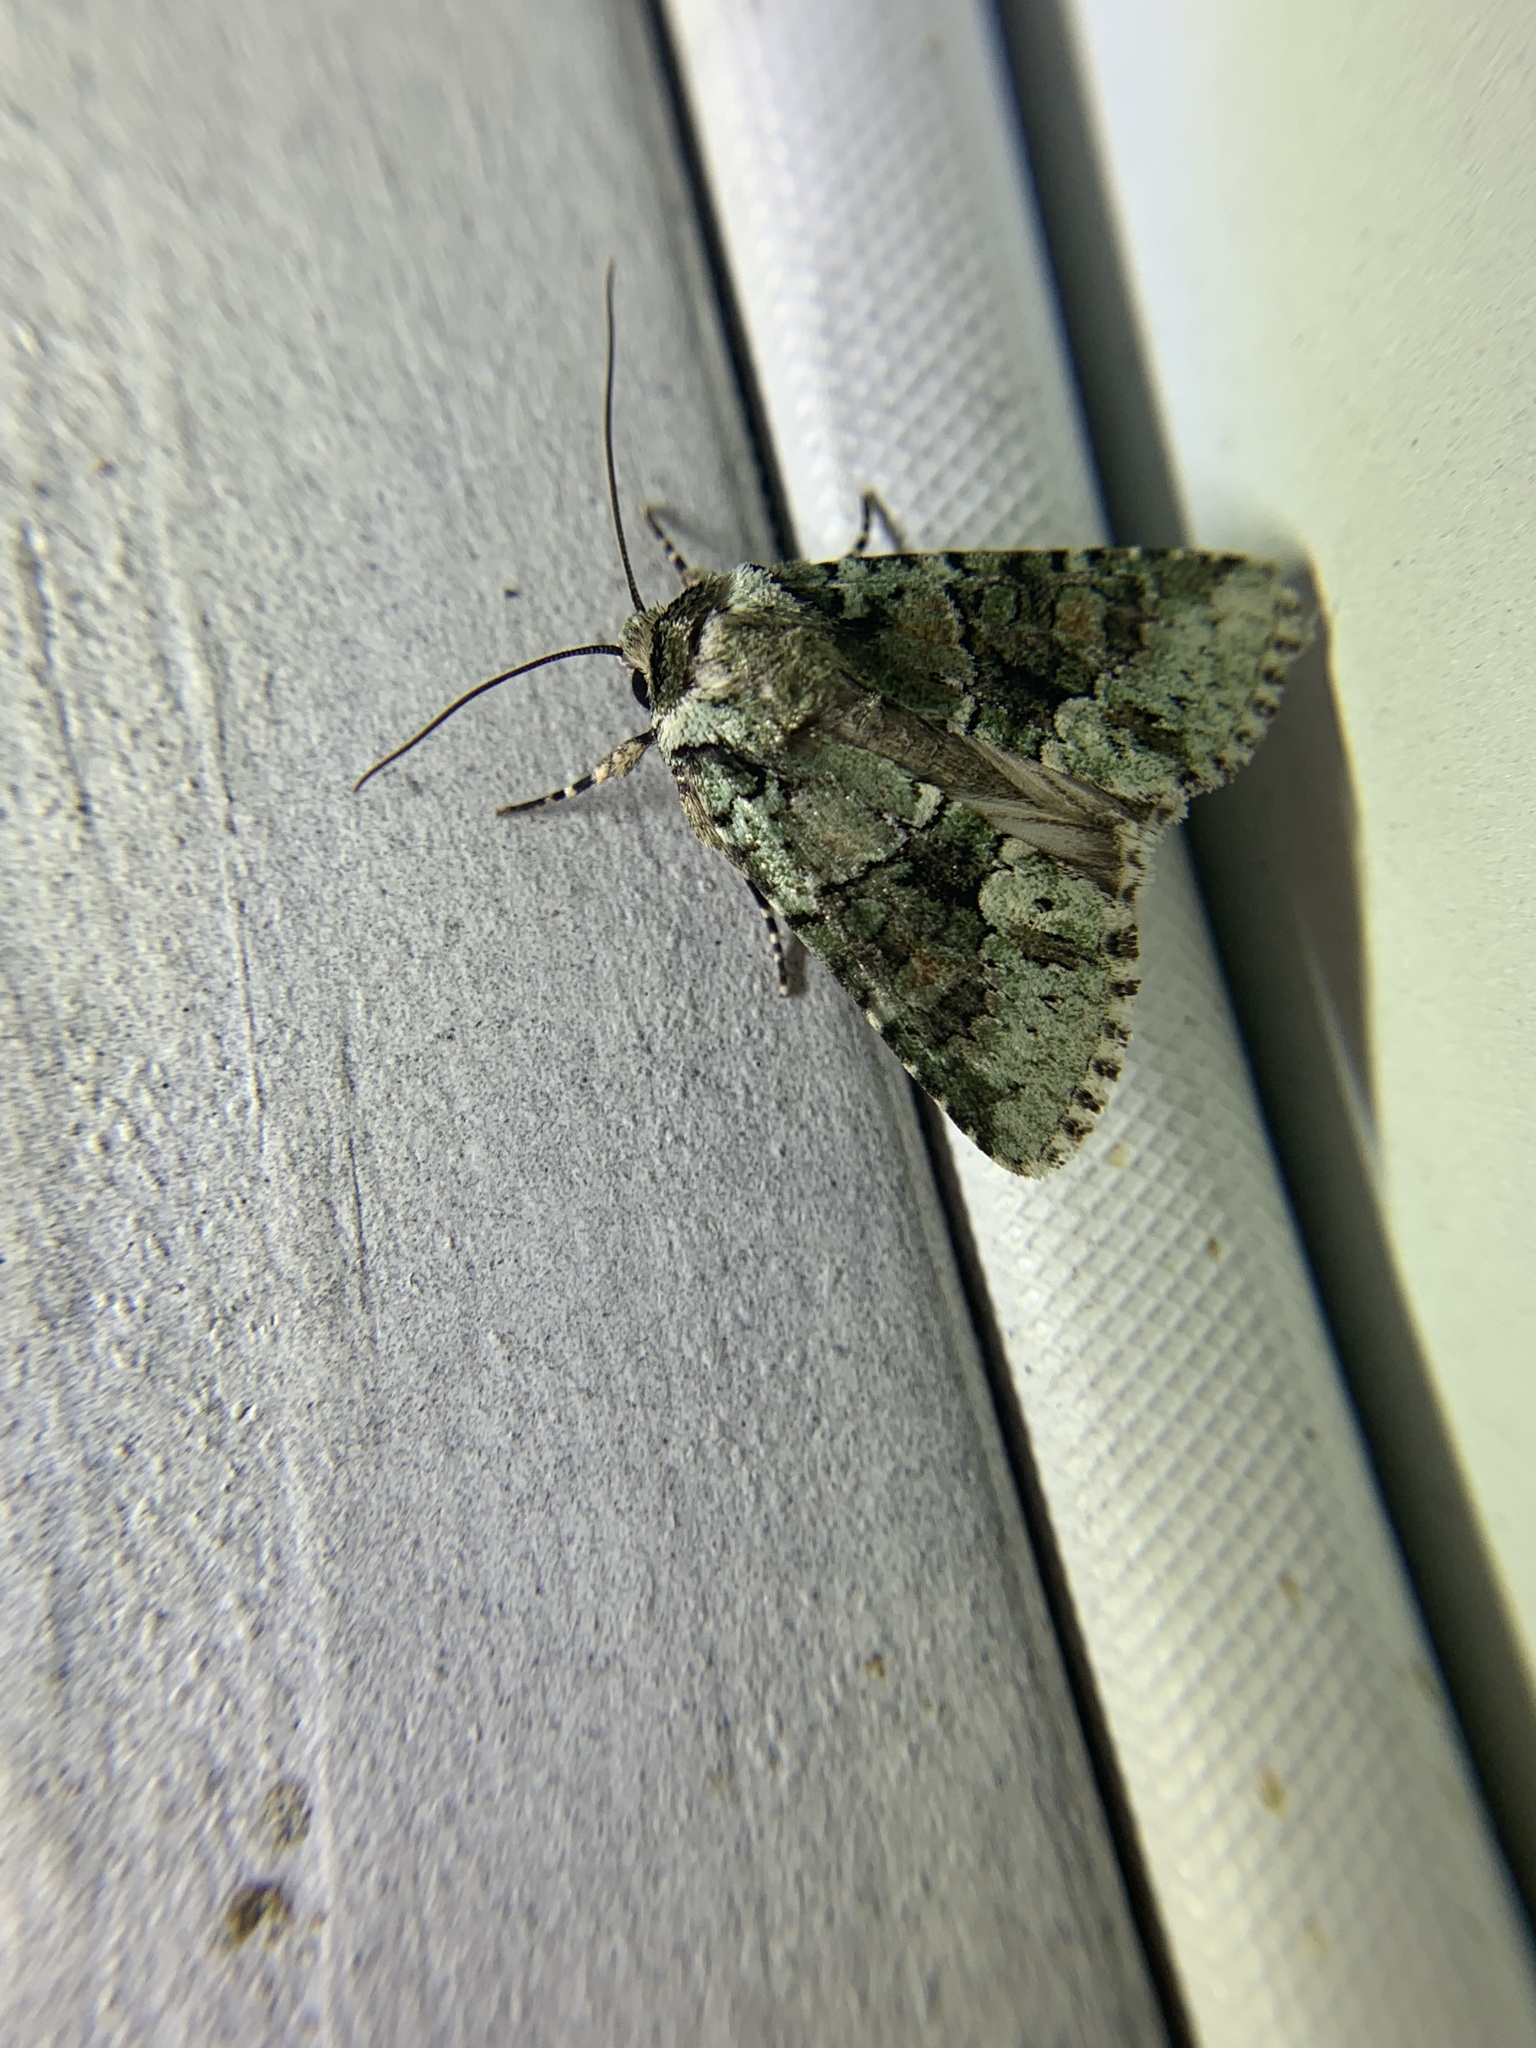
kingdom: Animalia
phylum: Arthropoda
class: Insecta
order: Lepidoptera
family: Noctuidae
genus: Lacinipolia
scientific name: Lacinipolia explicata
